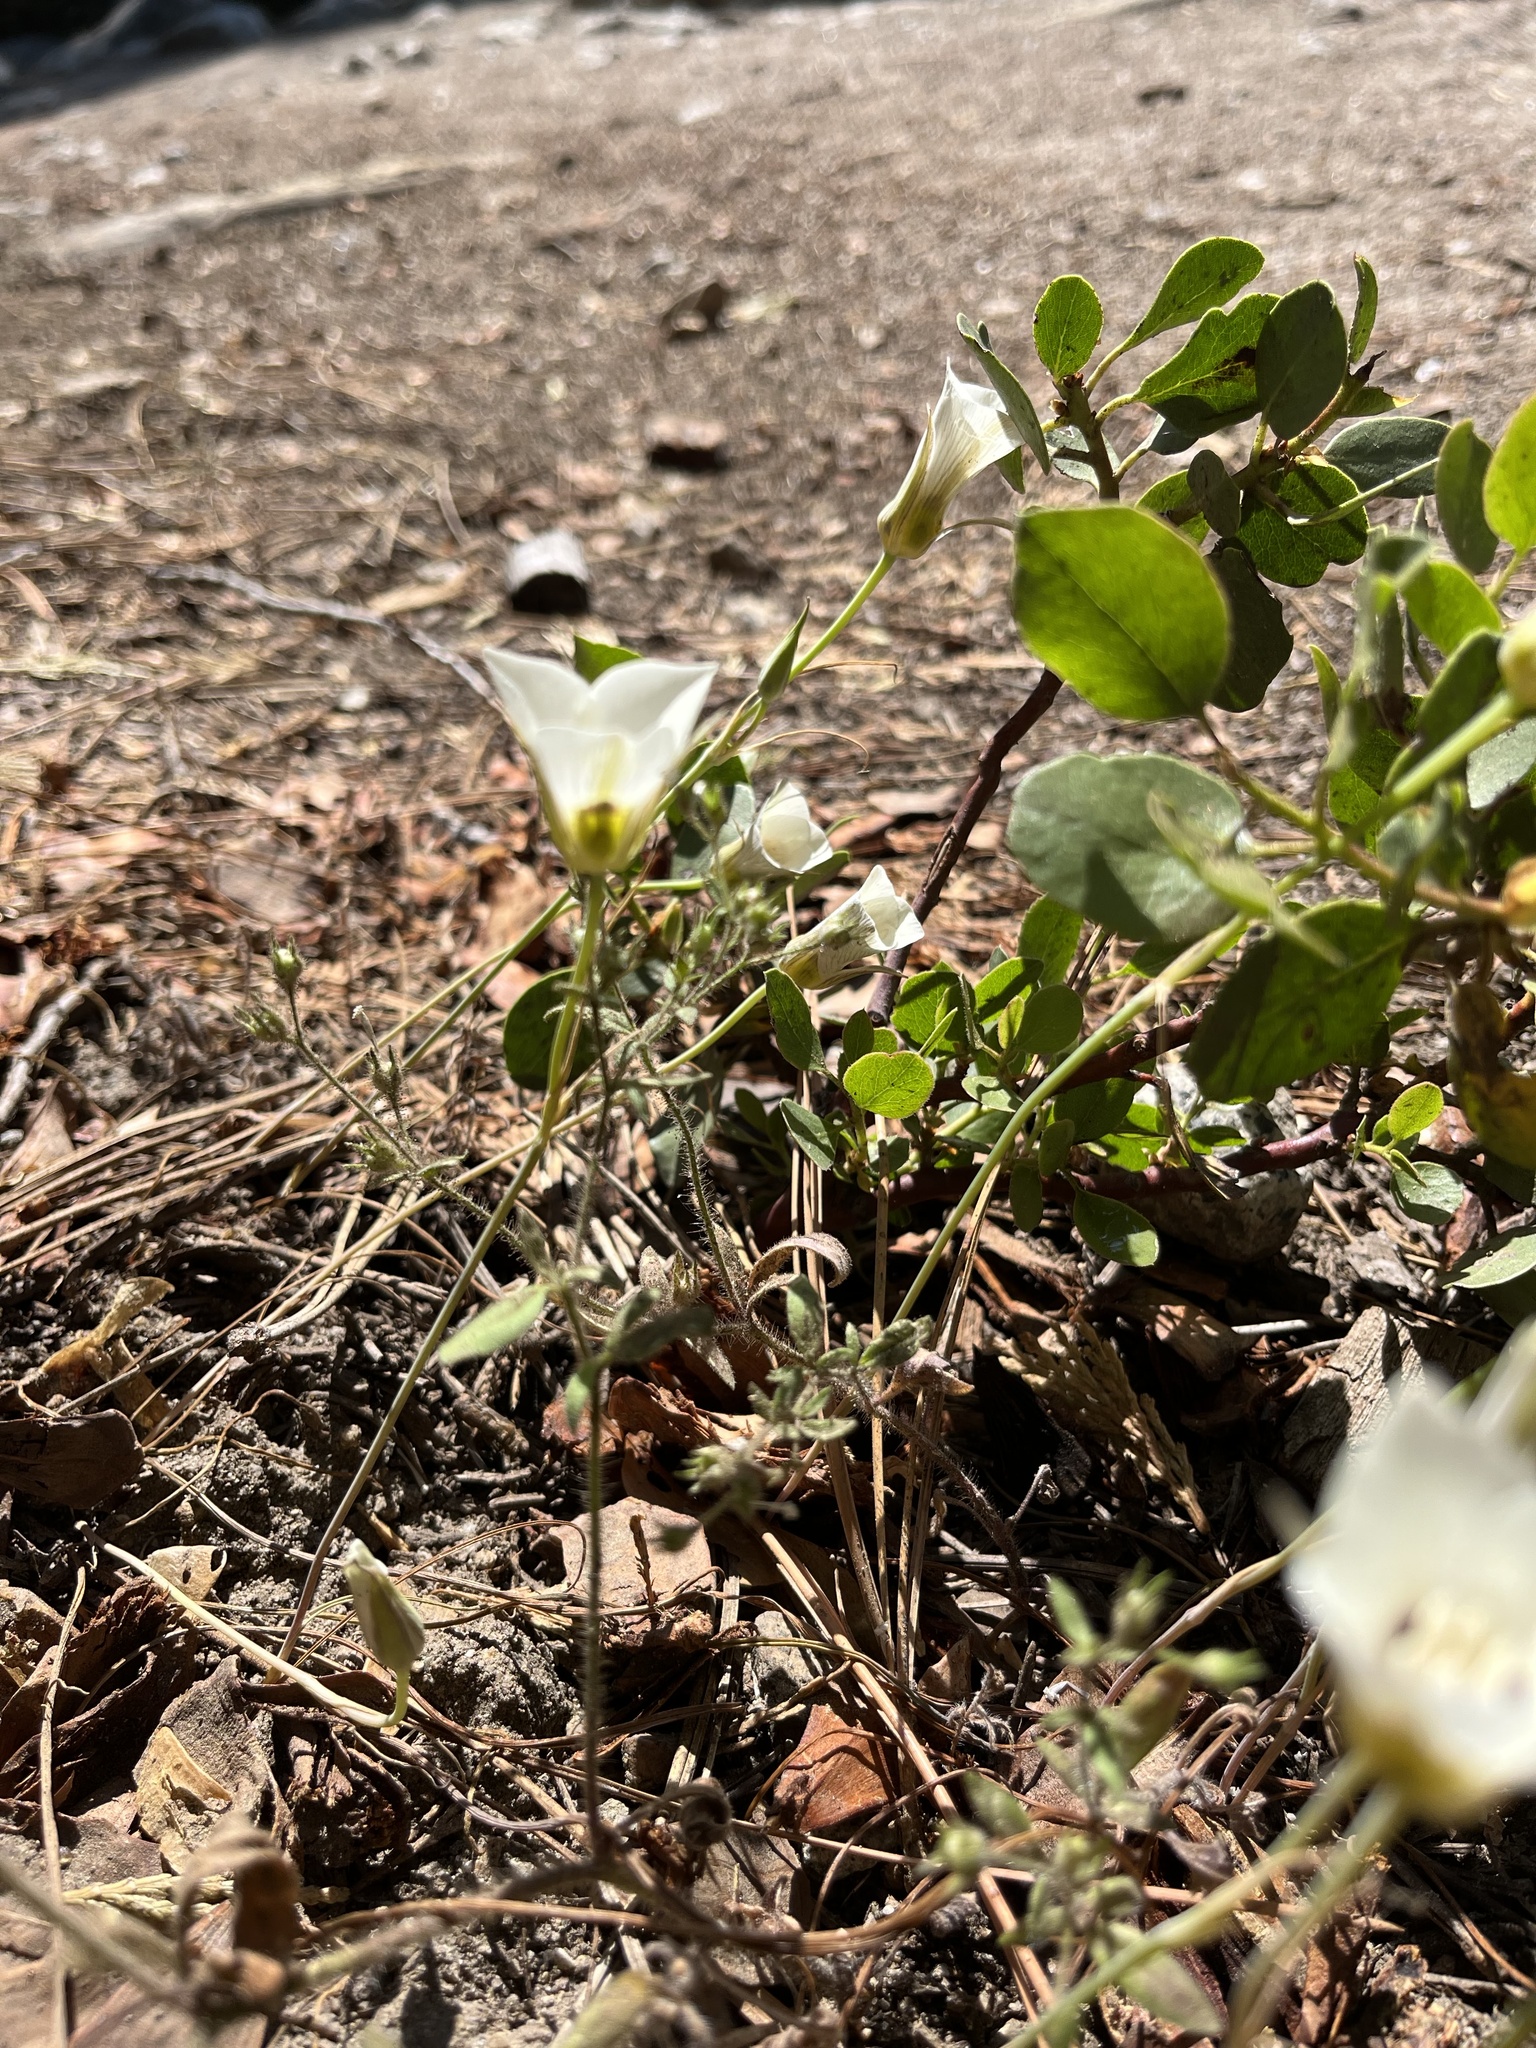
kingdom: Plantae
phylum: Tracheophyta
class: Liliopsida
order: Liliales
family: Liliaceae
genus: Calochortus
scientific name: Calochortus leichtlinii
